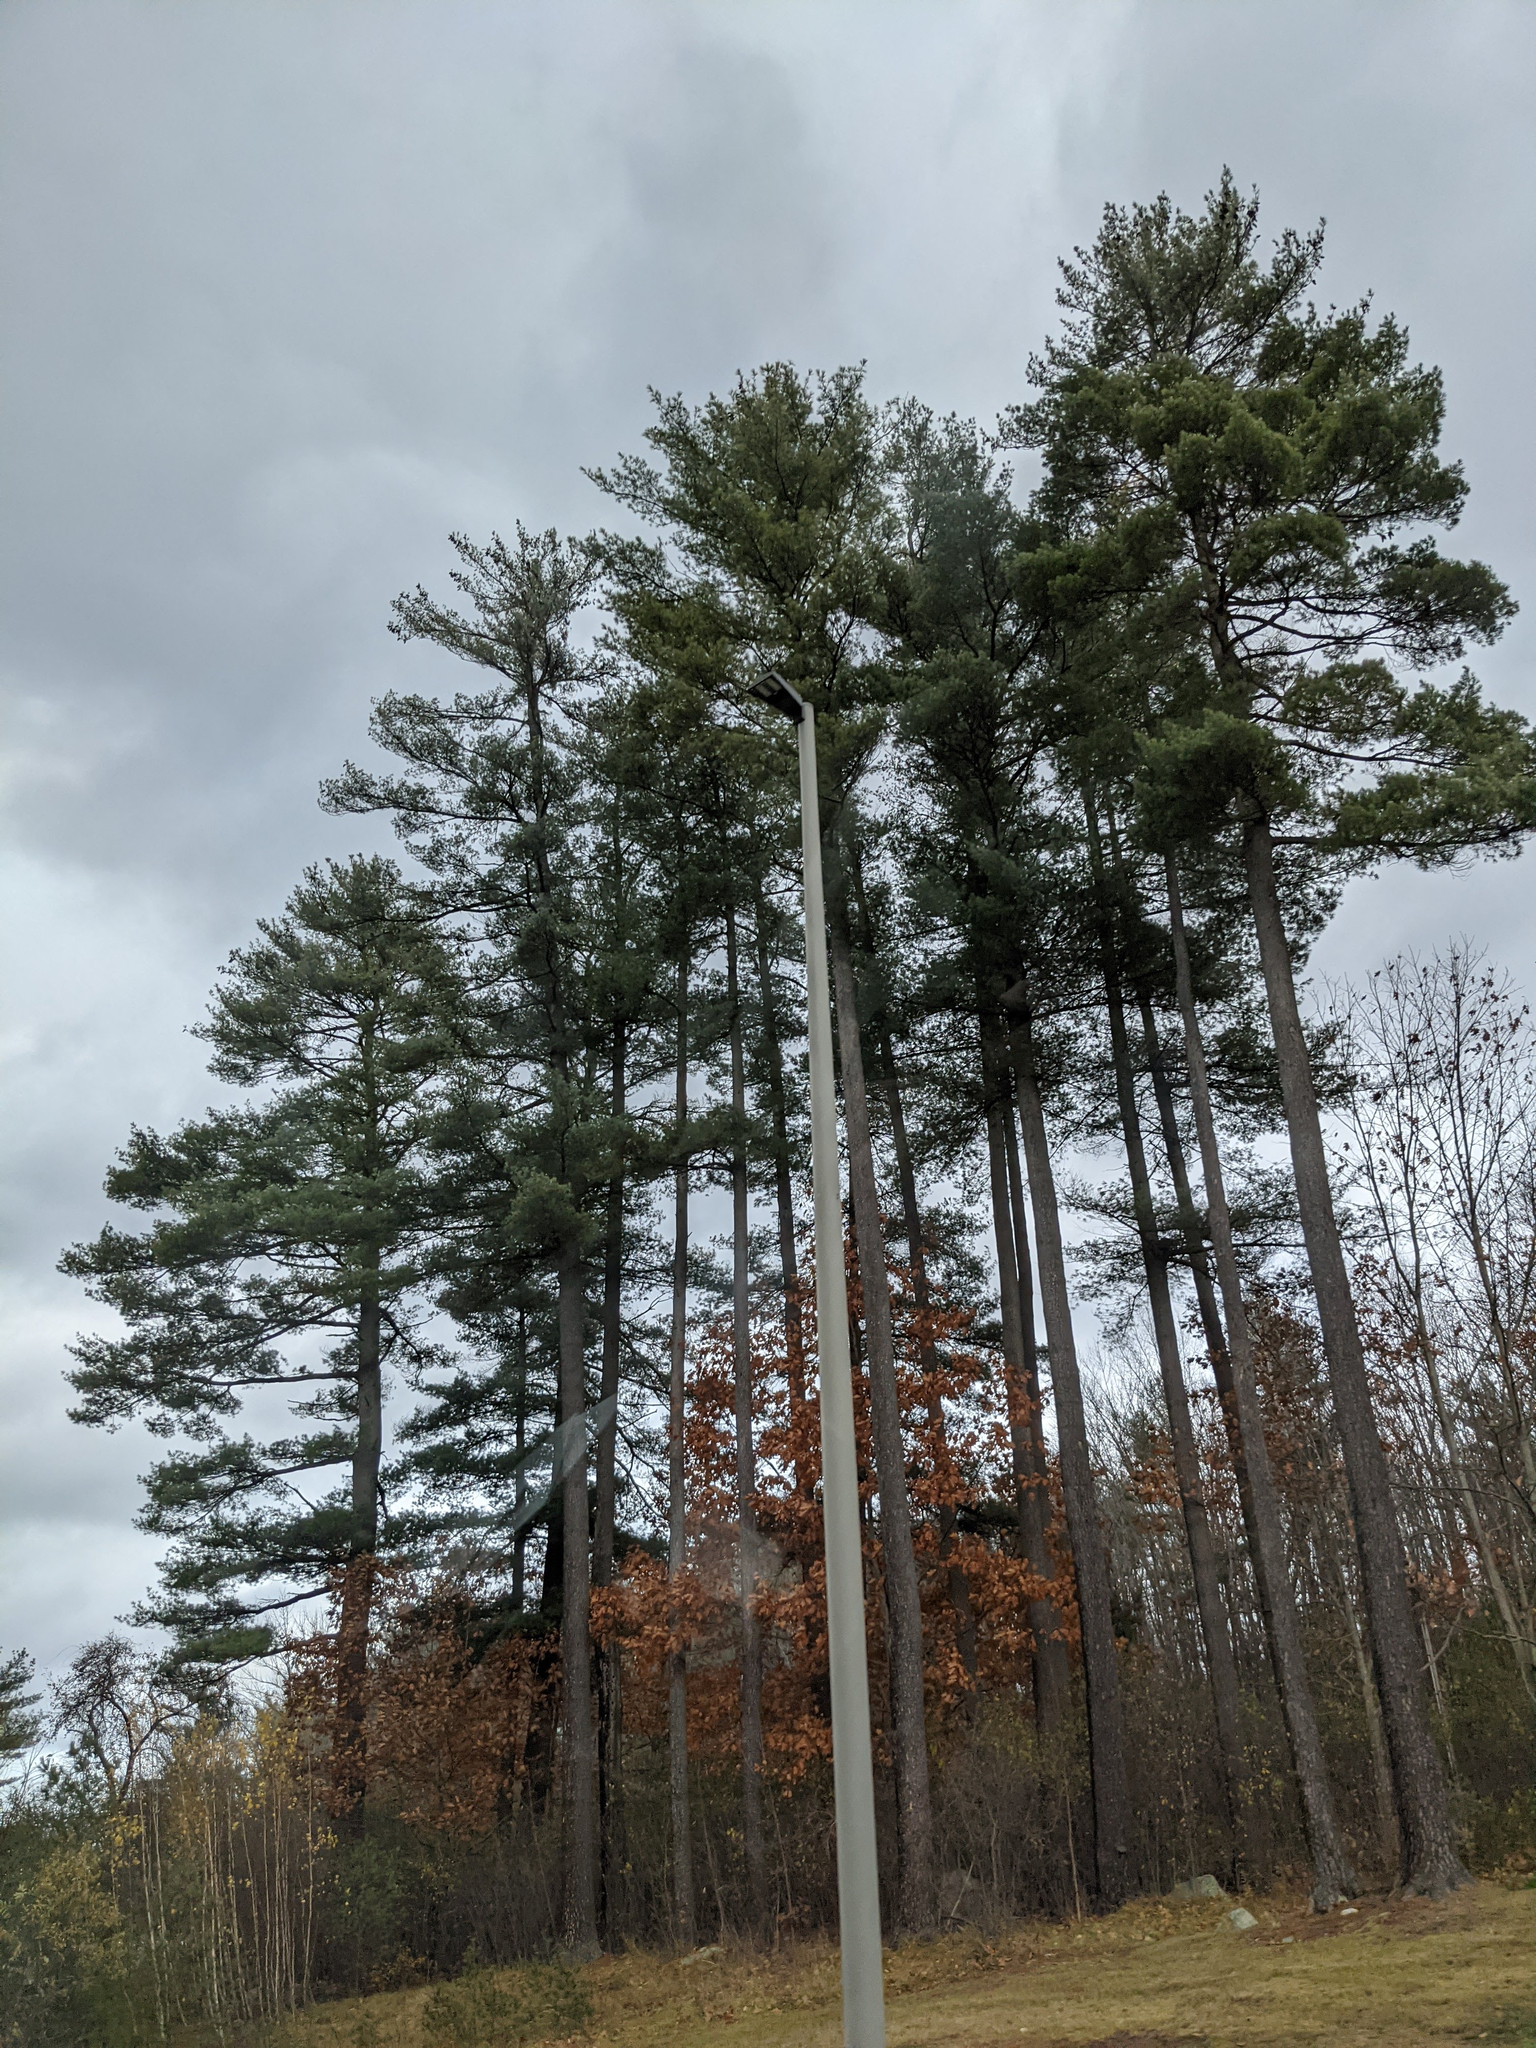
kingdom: Plantae
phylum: Tracheophyta
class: Pinopsida
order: Pinales
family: Pinaceae
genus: Pinus
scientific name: Pinus strobus
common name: Weymouth pine
